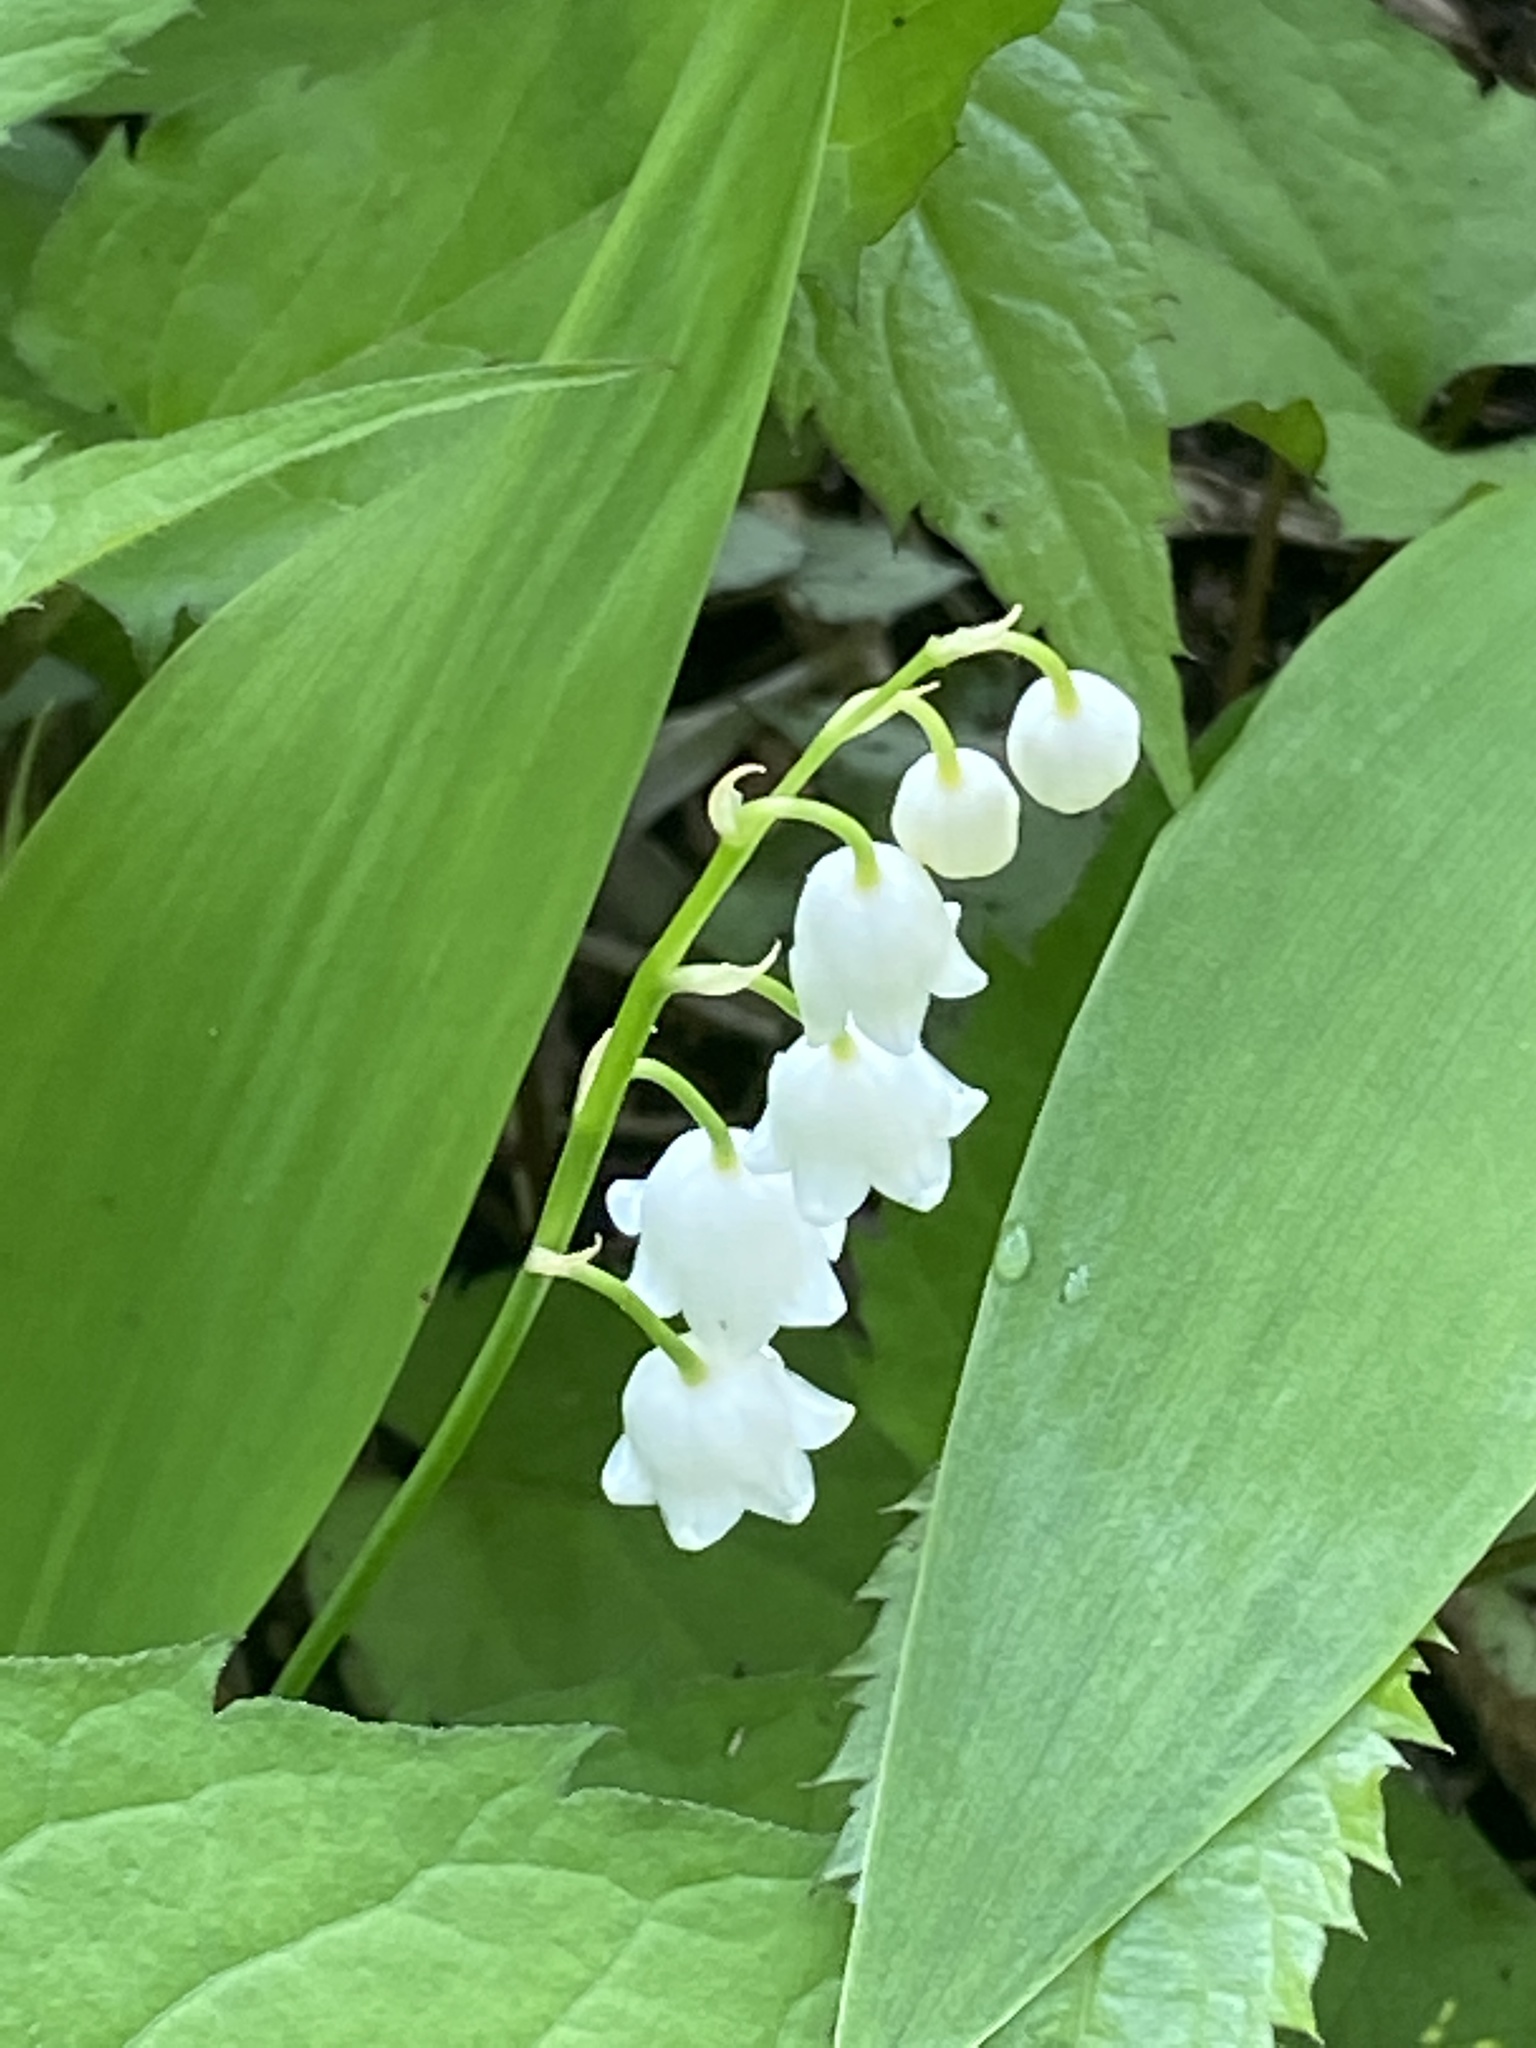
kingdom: Plantae
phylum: Tracheophyta
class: Liliopsida
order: Asparagales
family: Asparagaceae
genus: Convallaria
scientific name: Convallaria majalis
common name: Lily-of-the-valley
